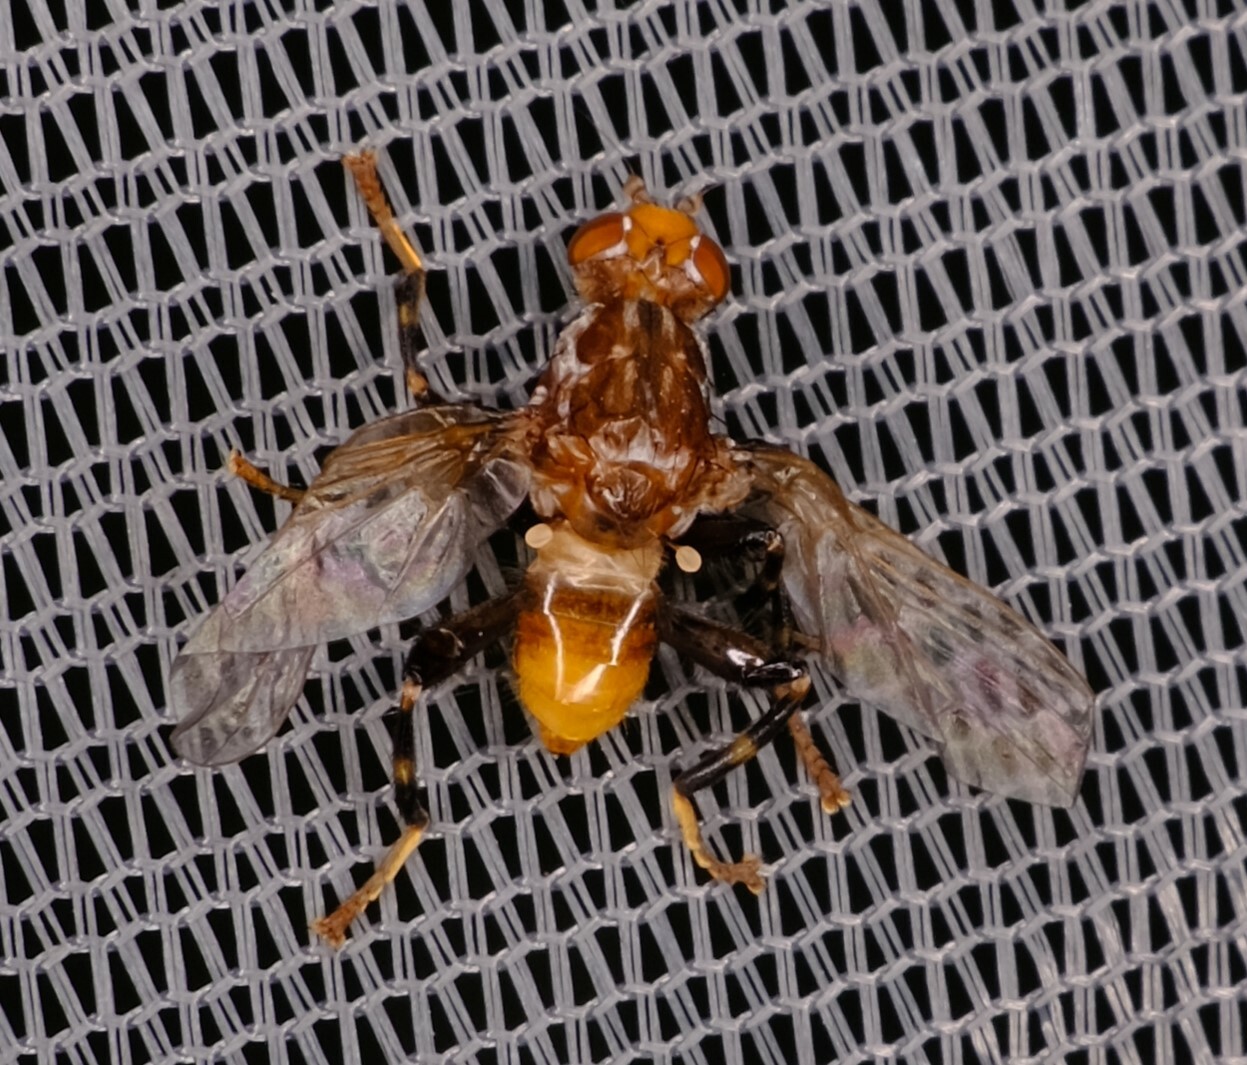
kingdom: Animalia
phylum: Arthropoda
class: Insecta
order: Diptera
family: Heleomyzidae
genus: Tapeigaster
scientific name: Tapeigaster brunneifrons
